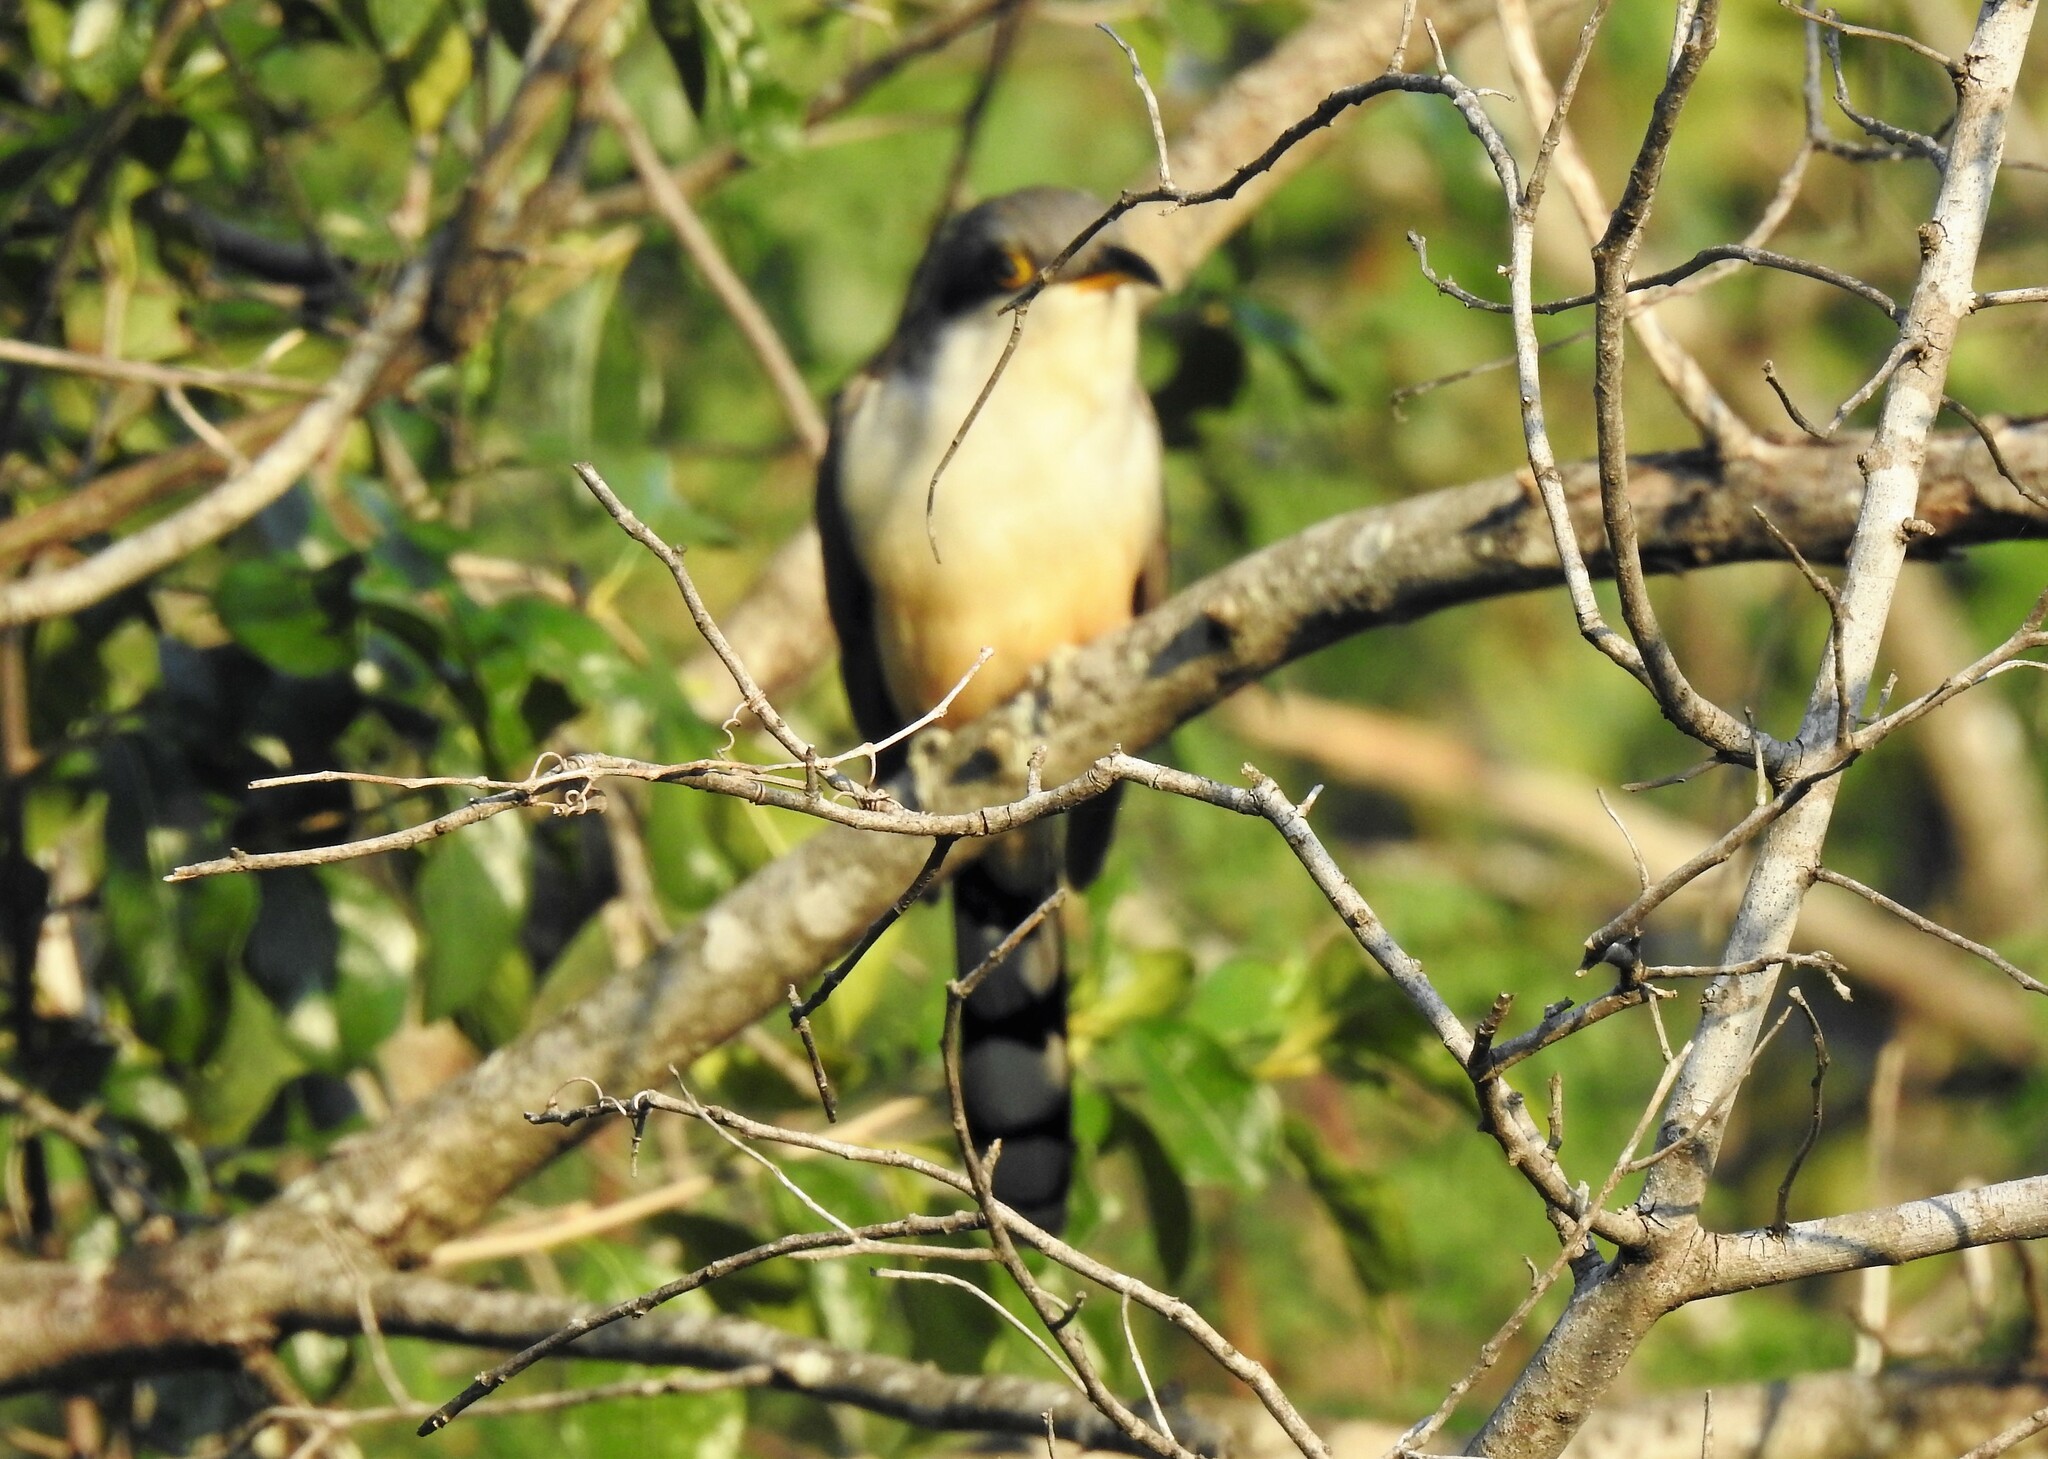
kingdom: Animalia
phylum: Chordata
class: Aves
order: Cuculiformes
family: Cuculidae
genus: Coccyzus
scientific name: Coccyzus minor
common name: Mangrove cuckoo
